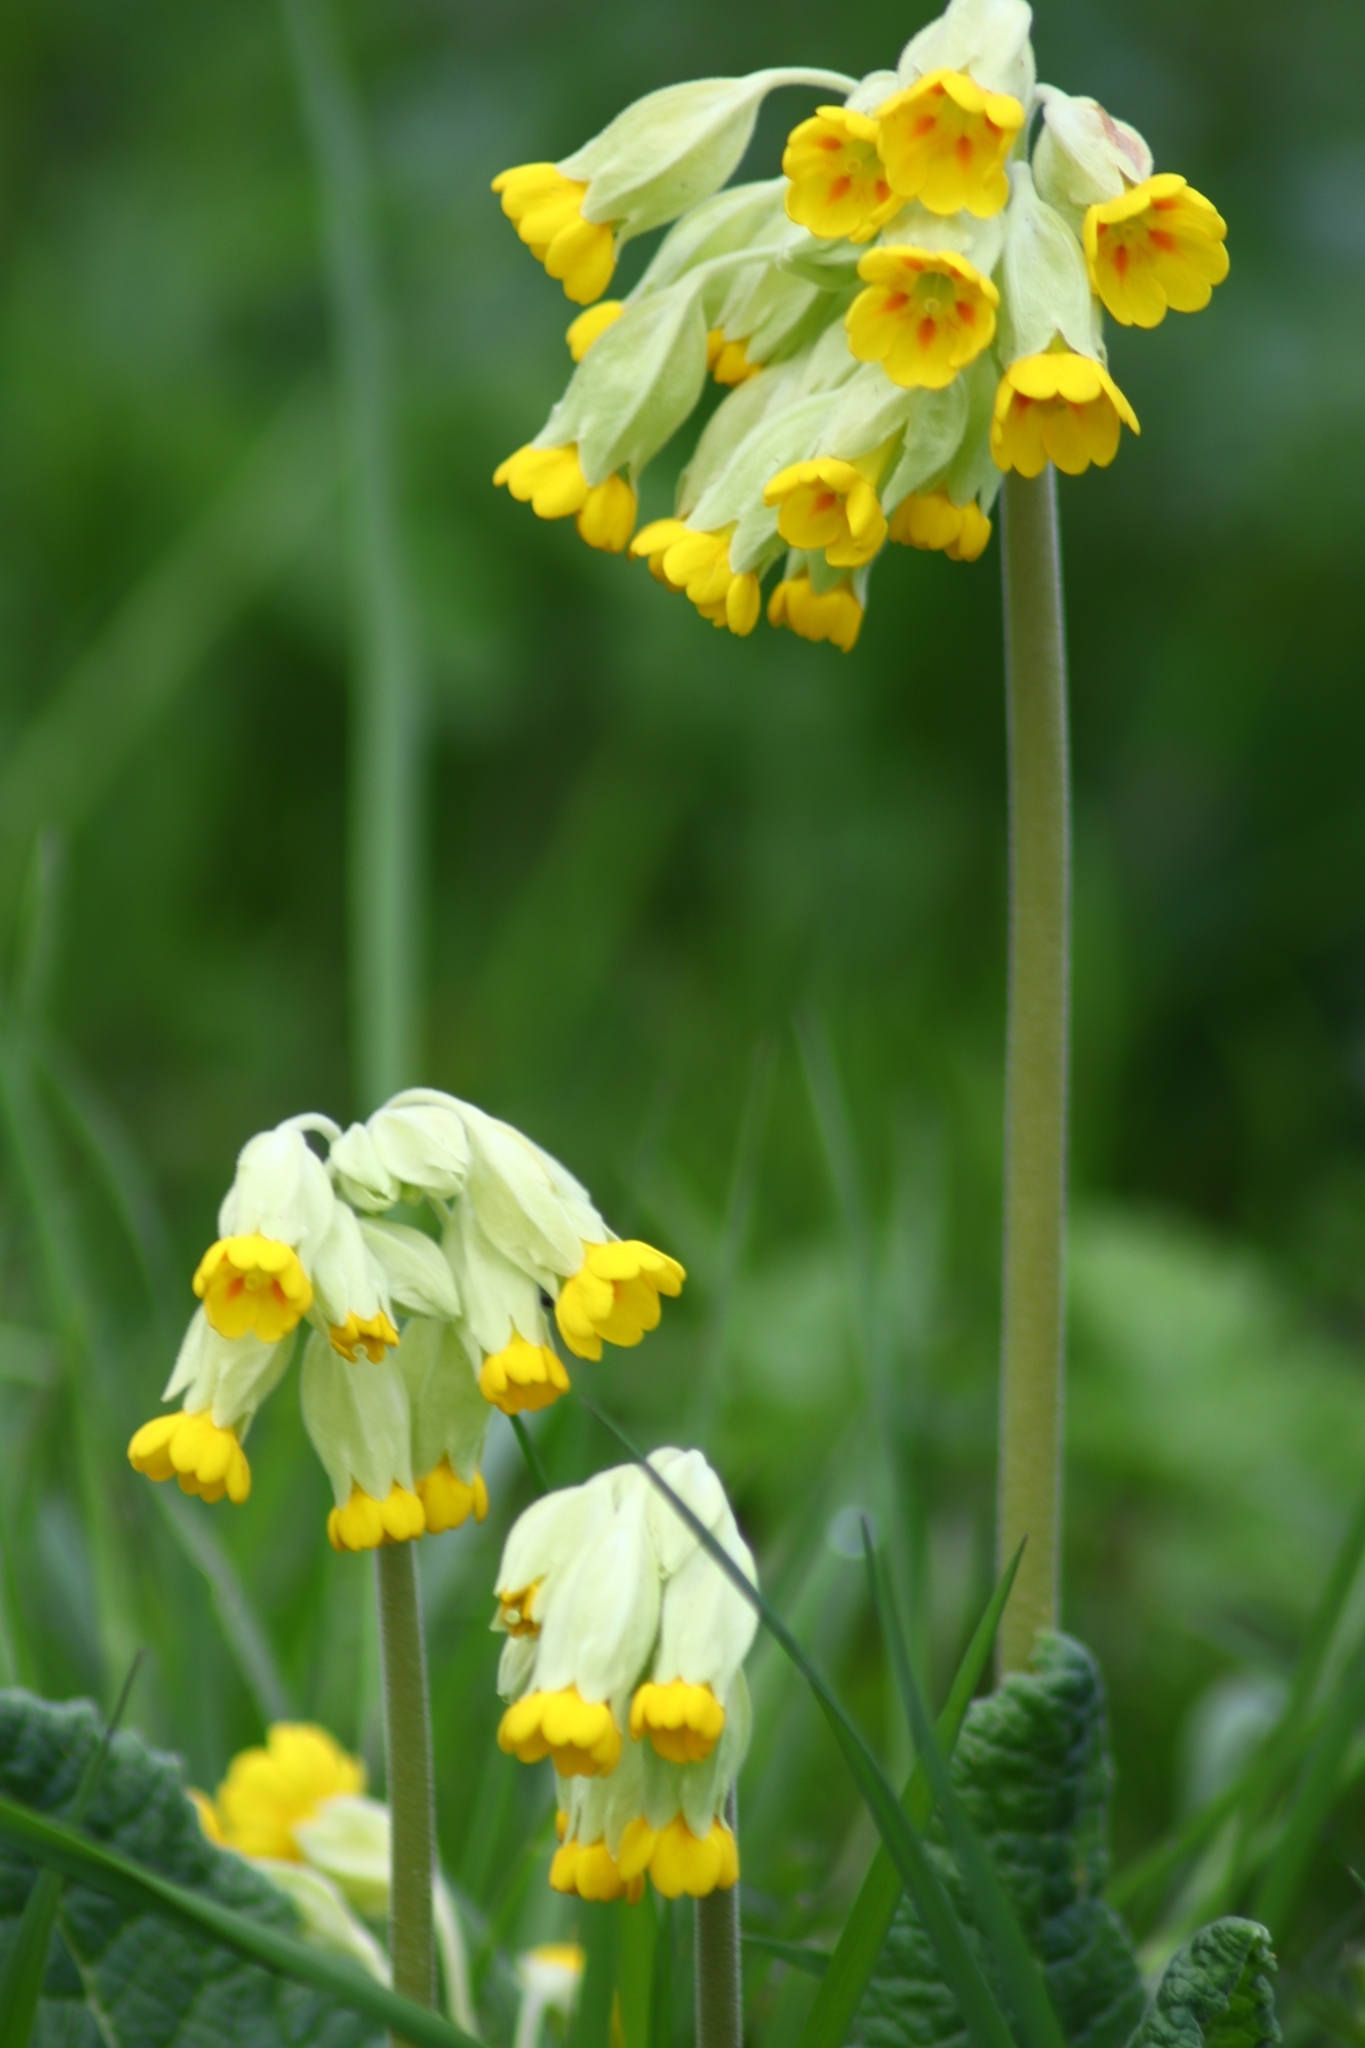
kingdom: Plantae
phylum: Tracheophyta
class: Magnoliopsida
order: Ericales
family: Primulaceae
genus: Primula
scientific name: Primula veris
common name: Cowslip
